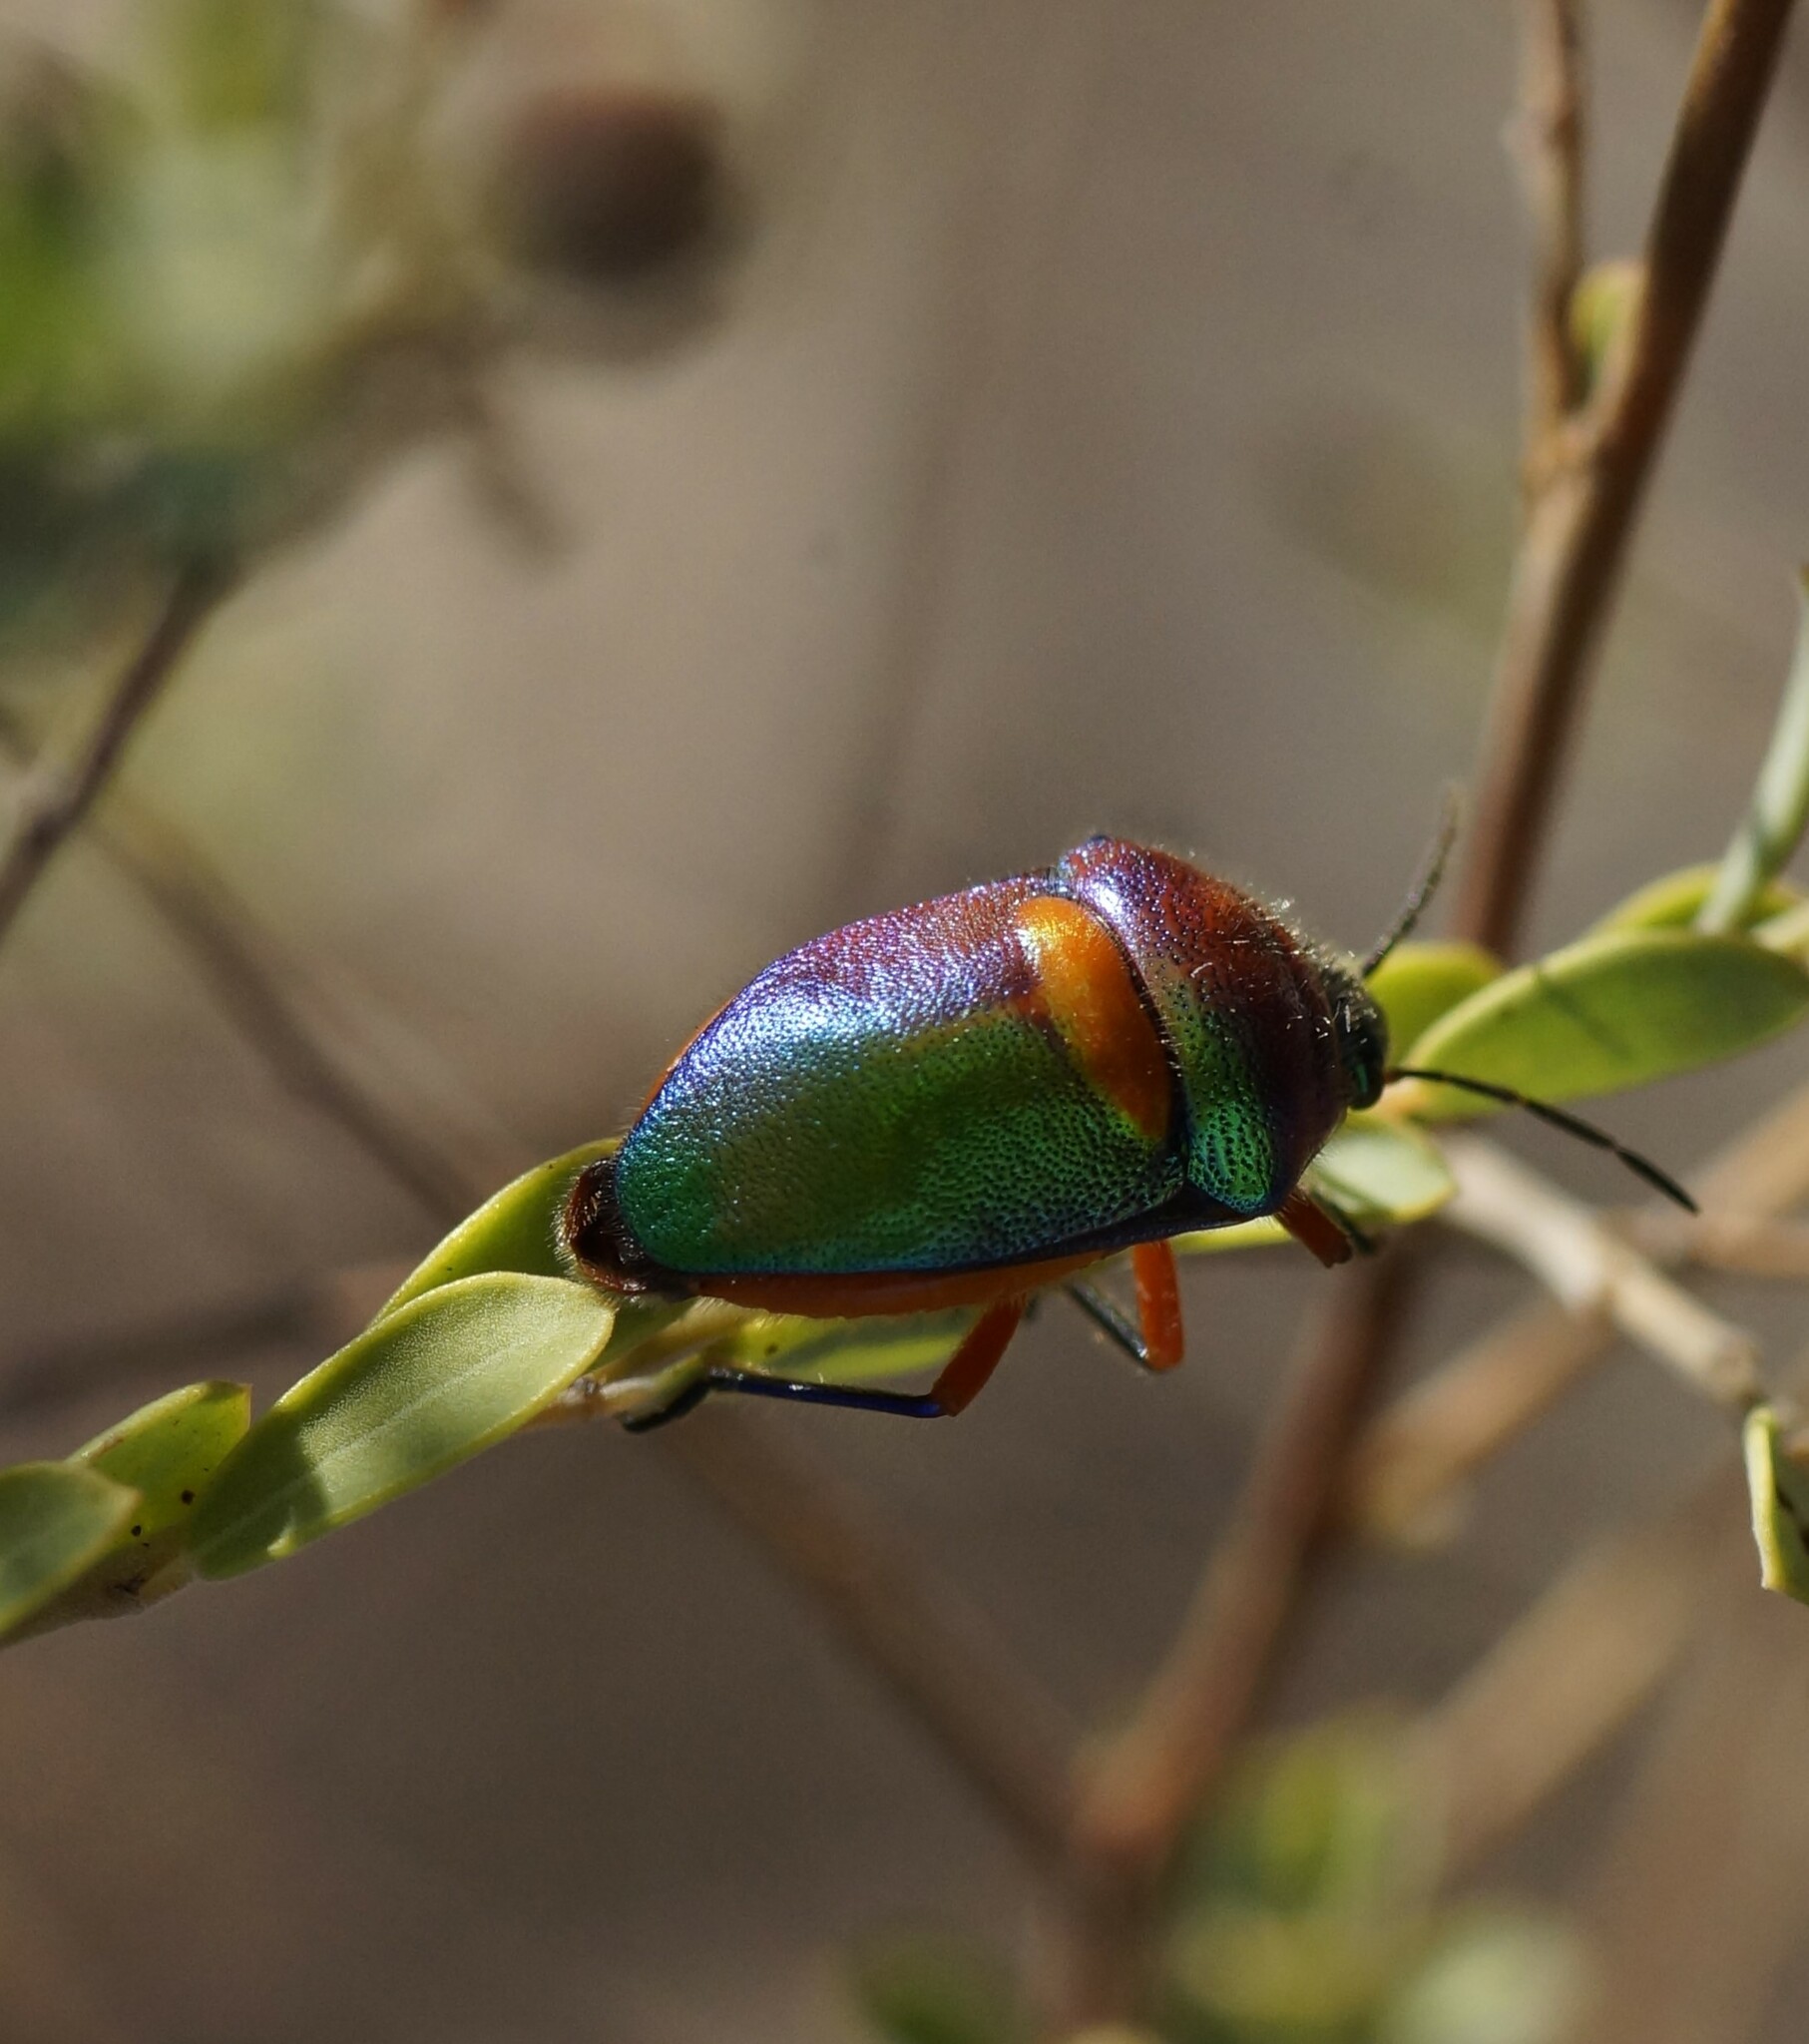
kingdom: Animalia
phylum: Arthropoda
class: Insecta
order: Hemiptera
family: Scutelleridae
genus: Lampromicra
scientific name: Lampromicra senator
